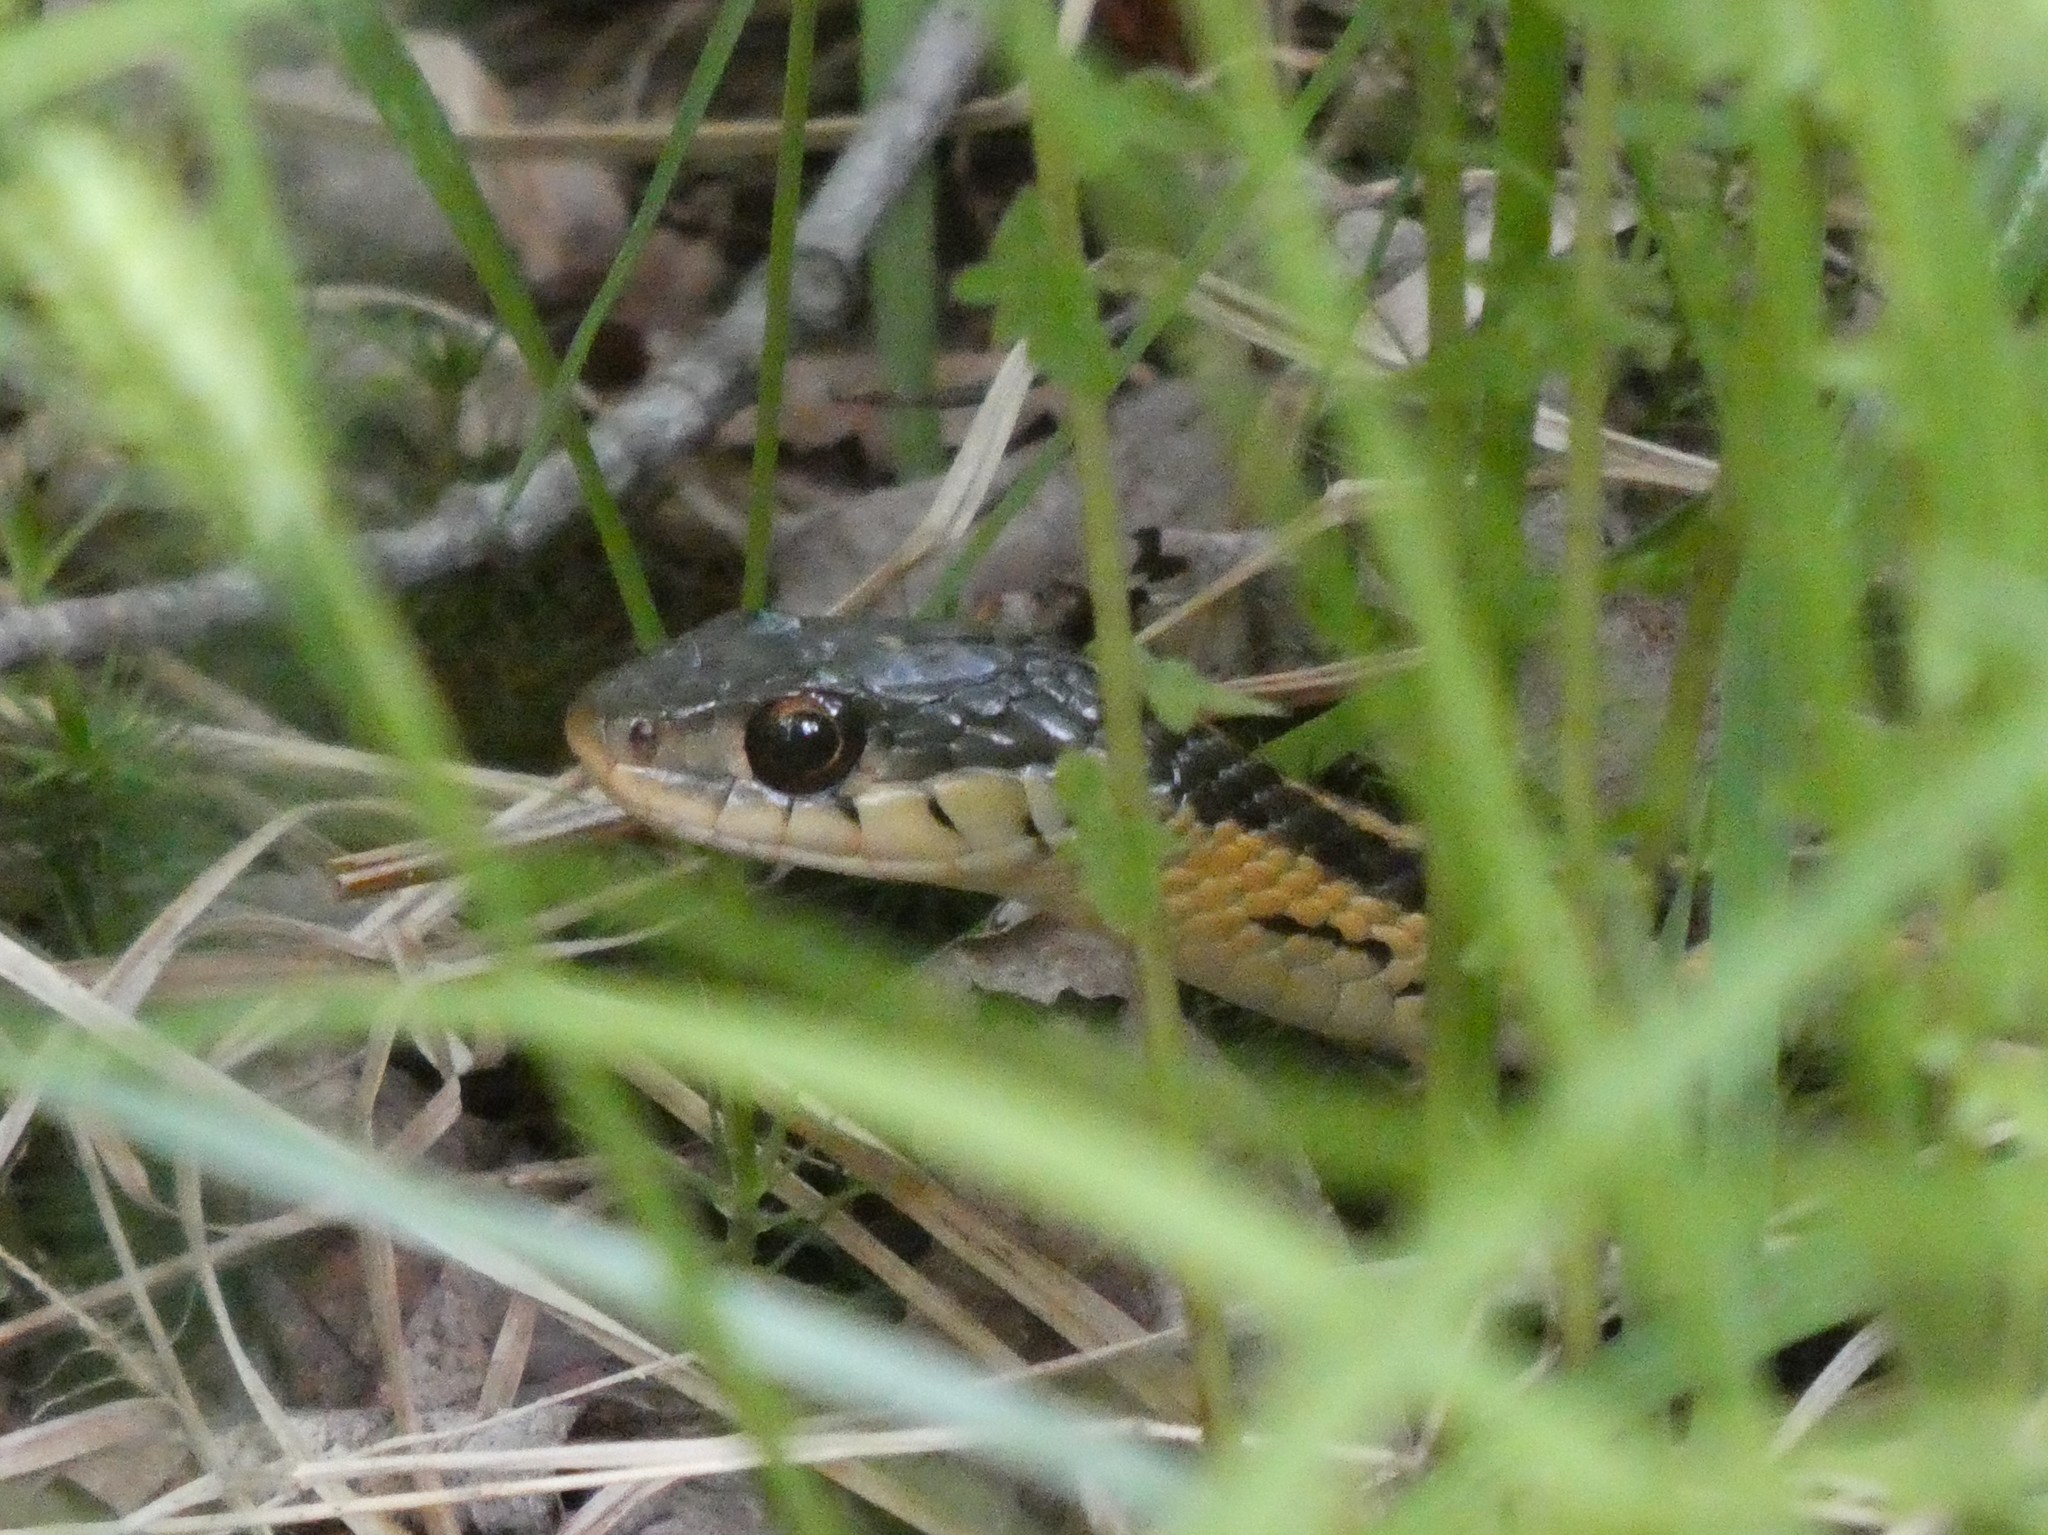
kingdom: Animalia
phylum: Chordata
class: Squamata
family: Colubridae
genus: Thamnophis
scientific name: Thamnophis sirtalis
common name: Common garter snake
